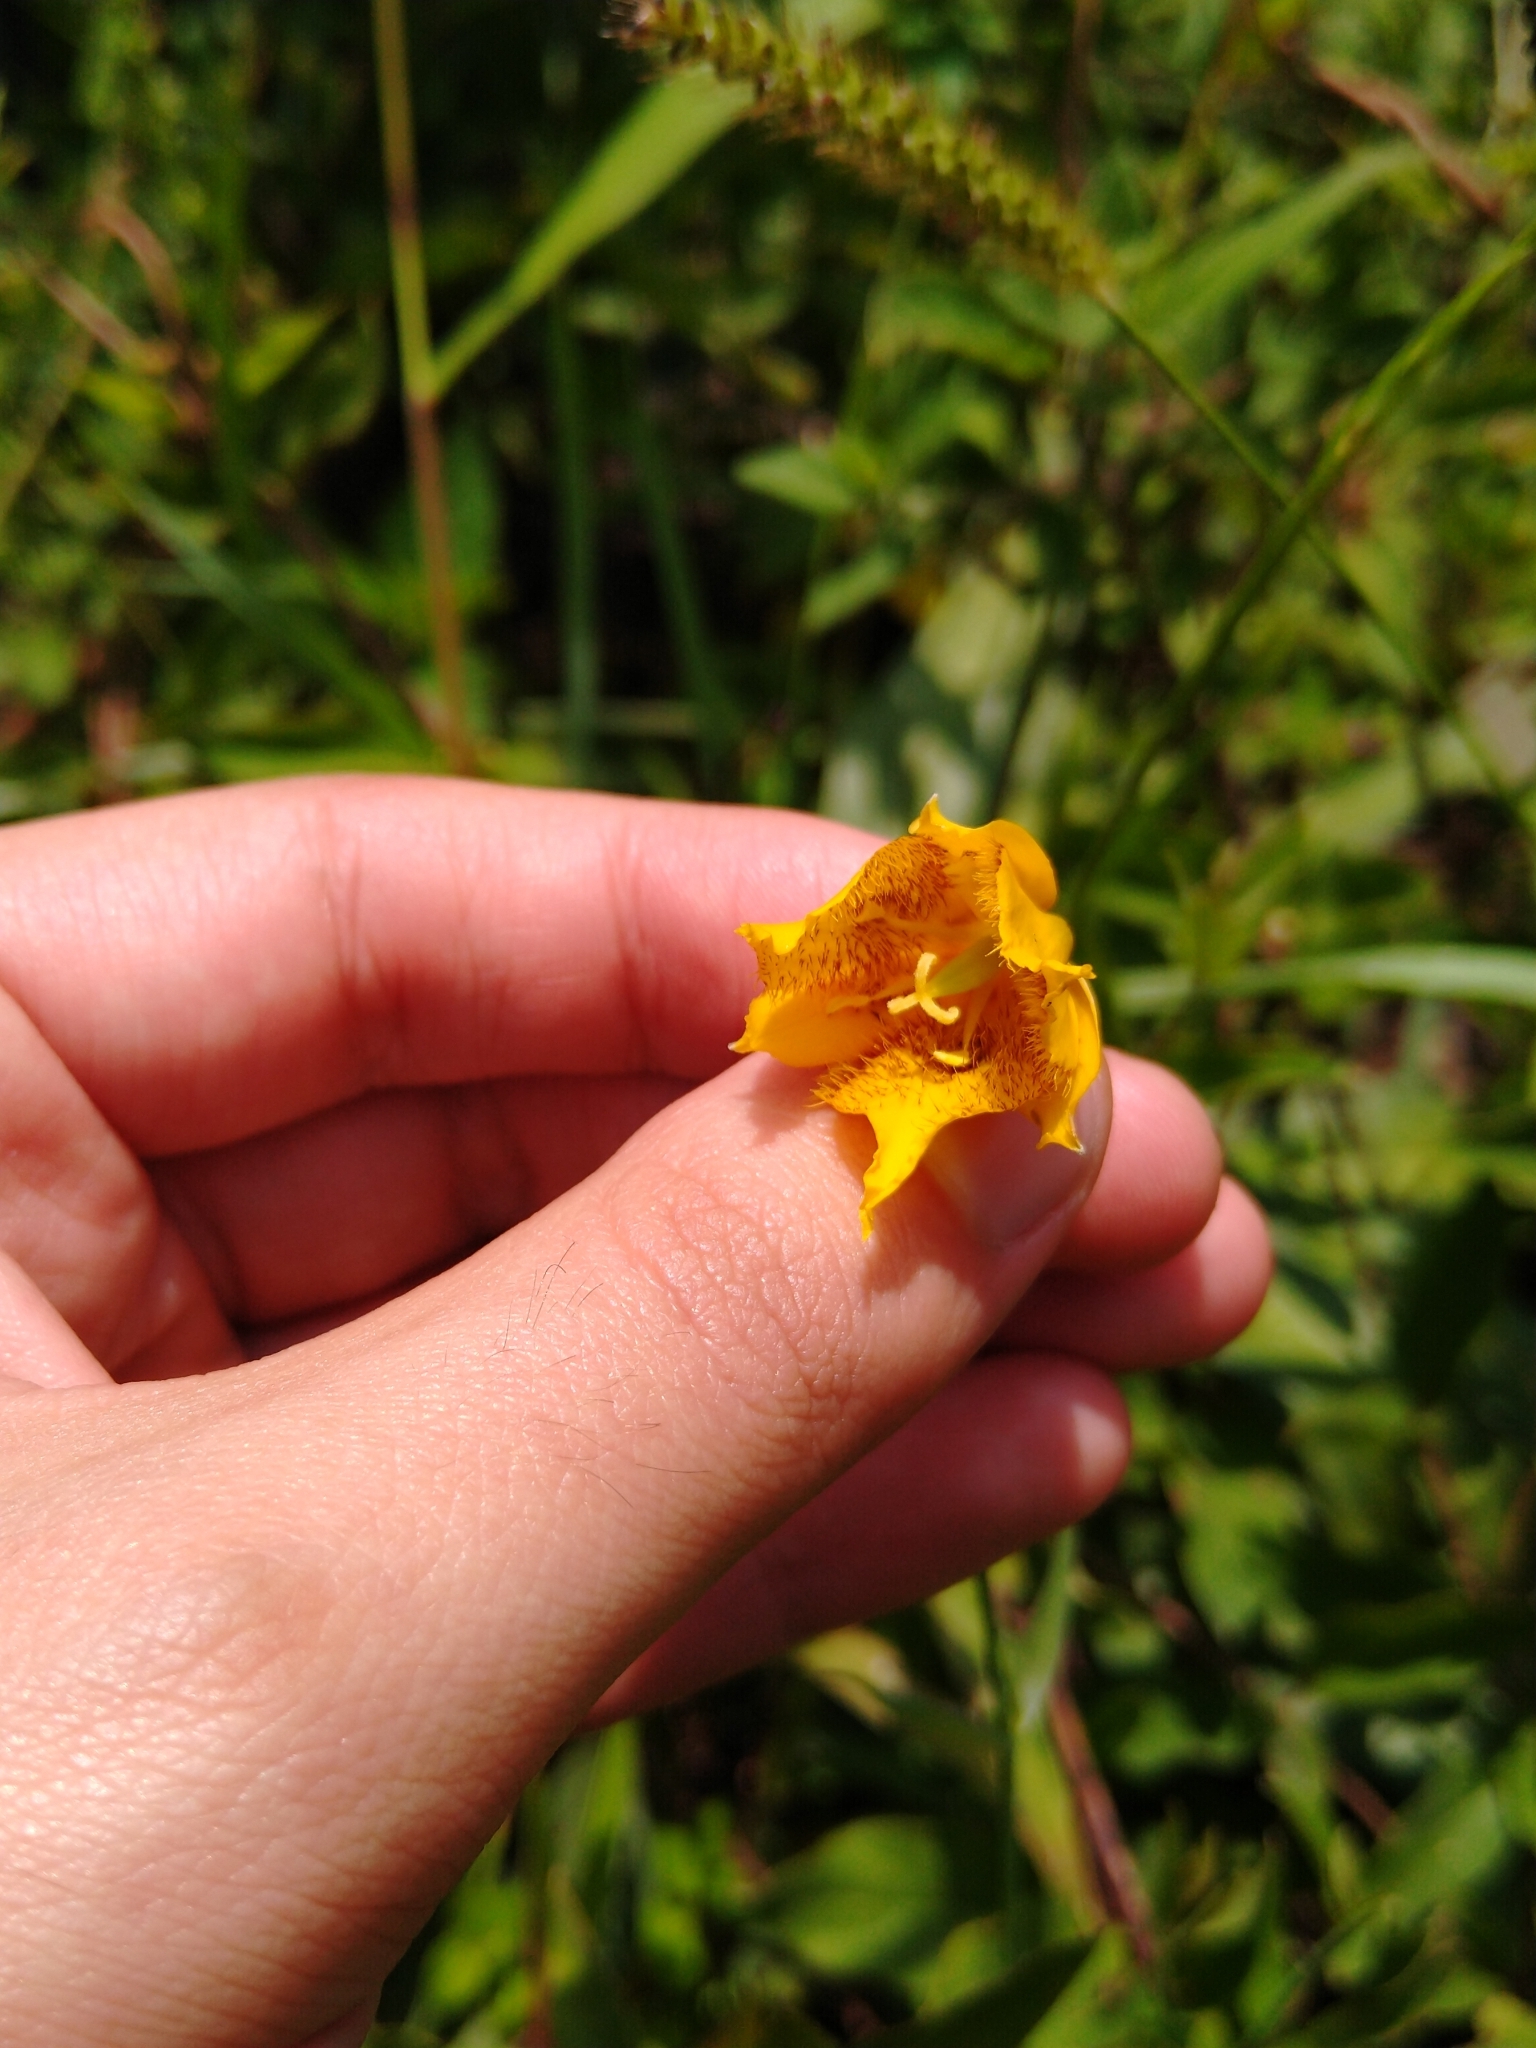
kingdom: Plantae
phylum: Tracheophyta
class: Liliopsida
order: Liliales
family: Liliaceae
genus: Calochortus
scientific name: Calochortus barbatus
